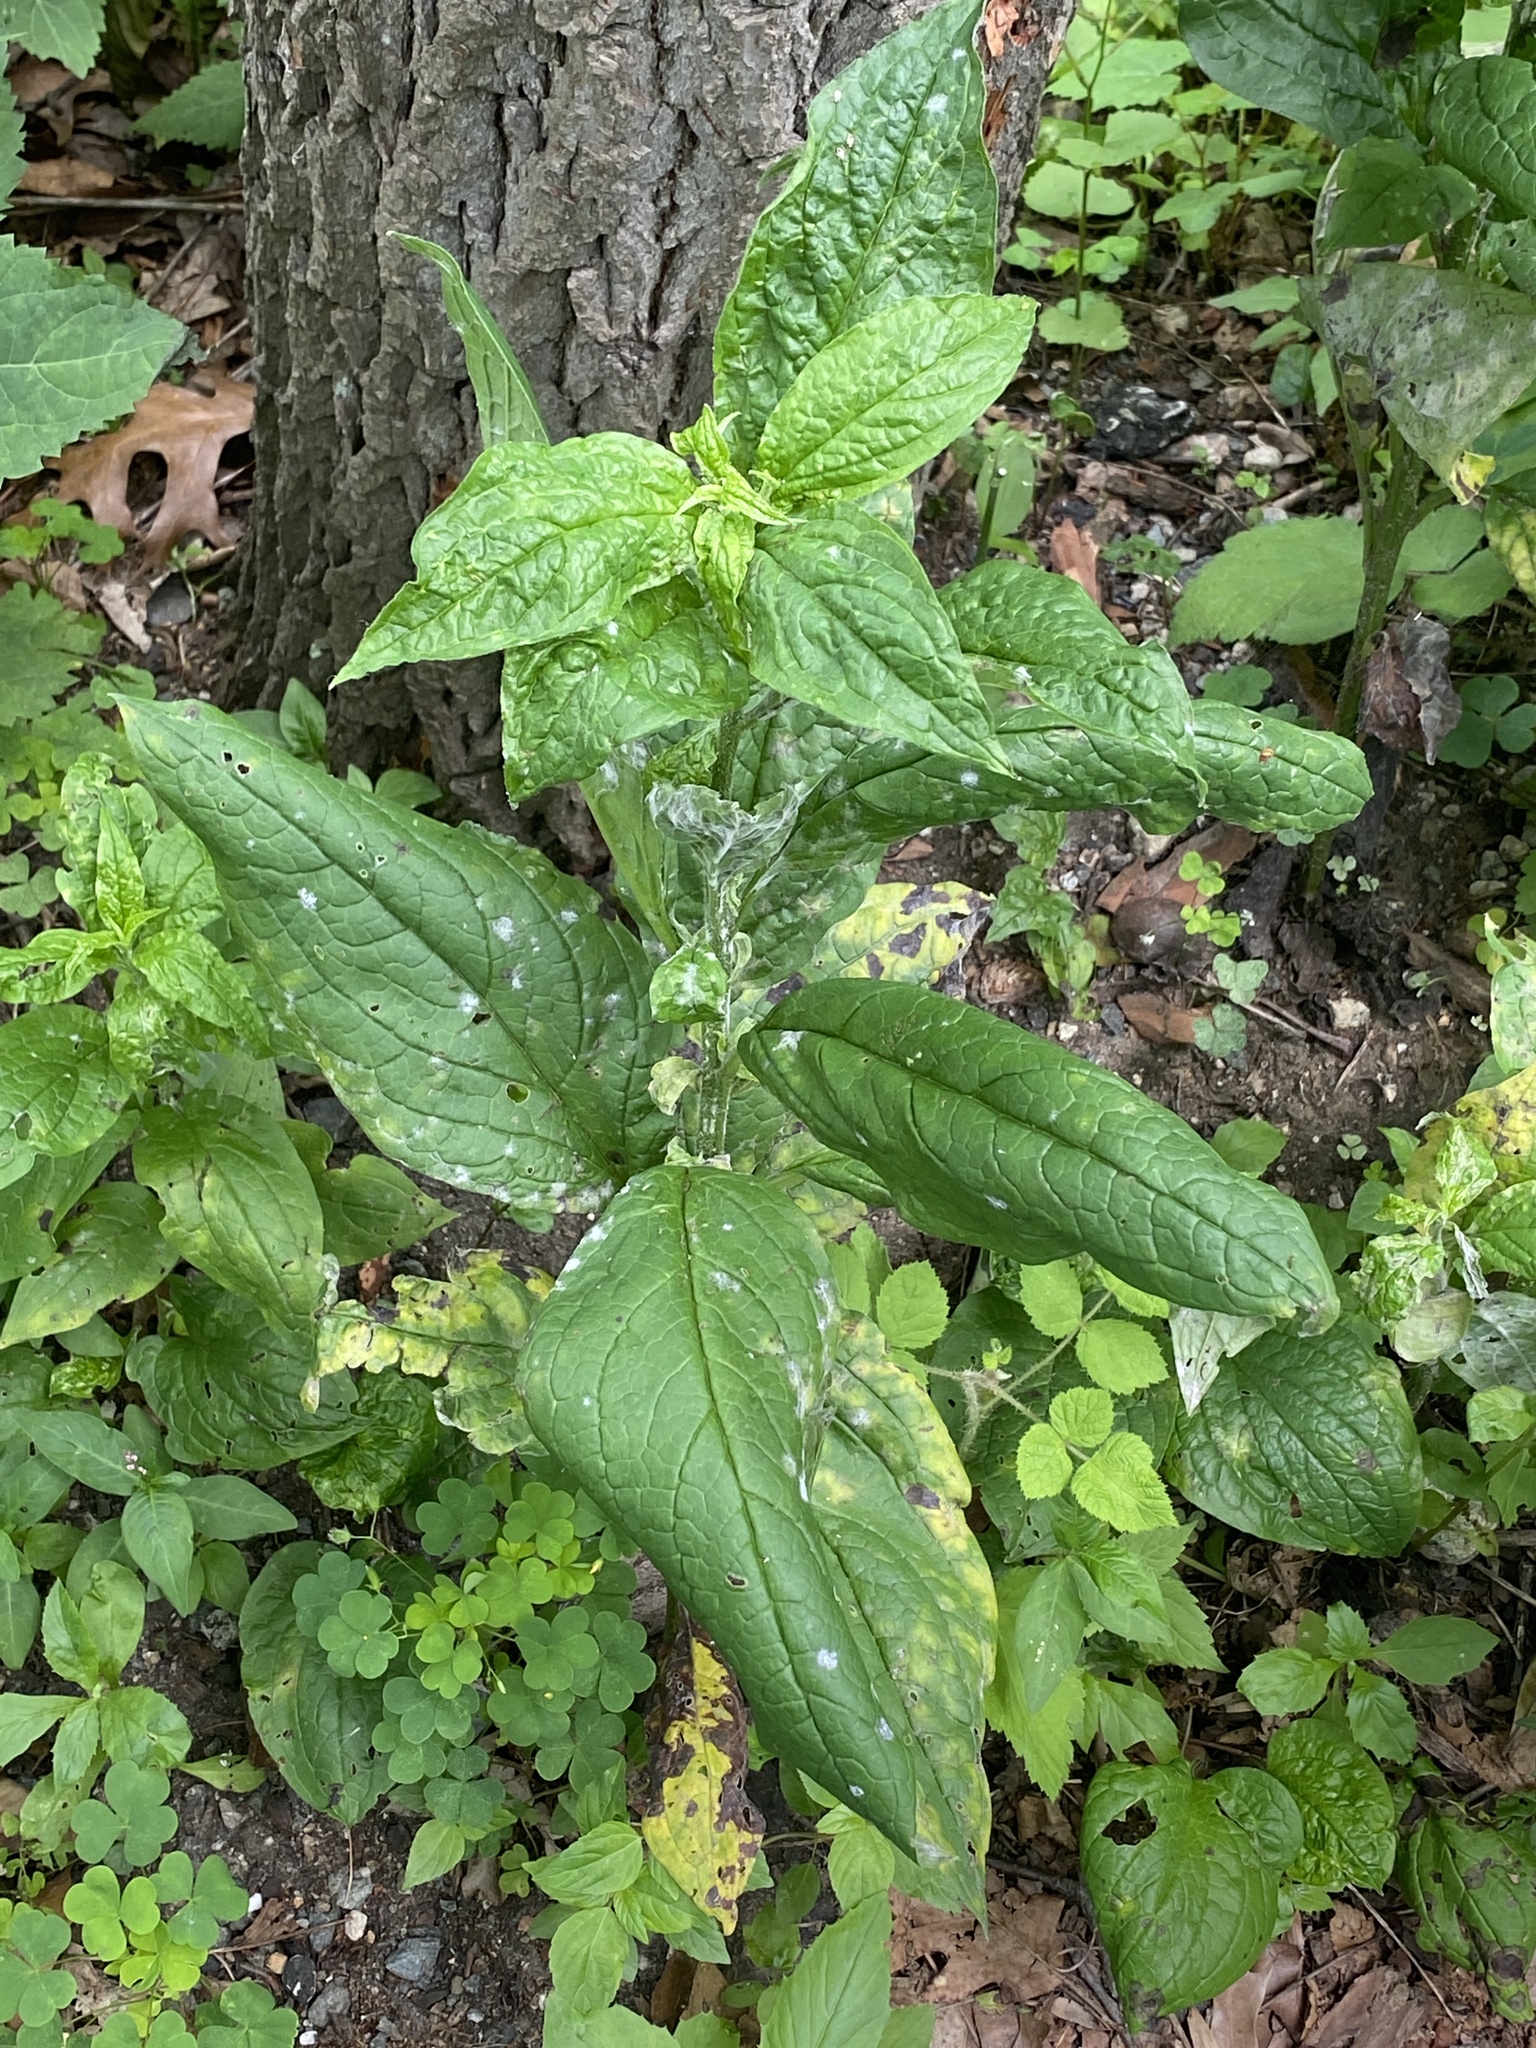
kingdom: Plantae
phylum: Tracheophyta
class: Magnoliopsida
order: Boraginales
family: Boraginaceae
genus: Hackelia
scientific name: Hackelia virginiana
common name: Beggar's-lice
